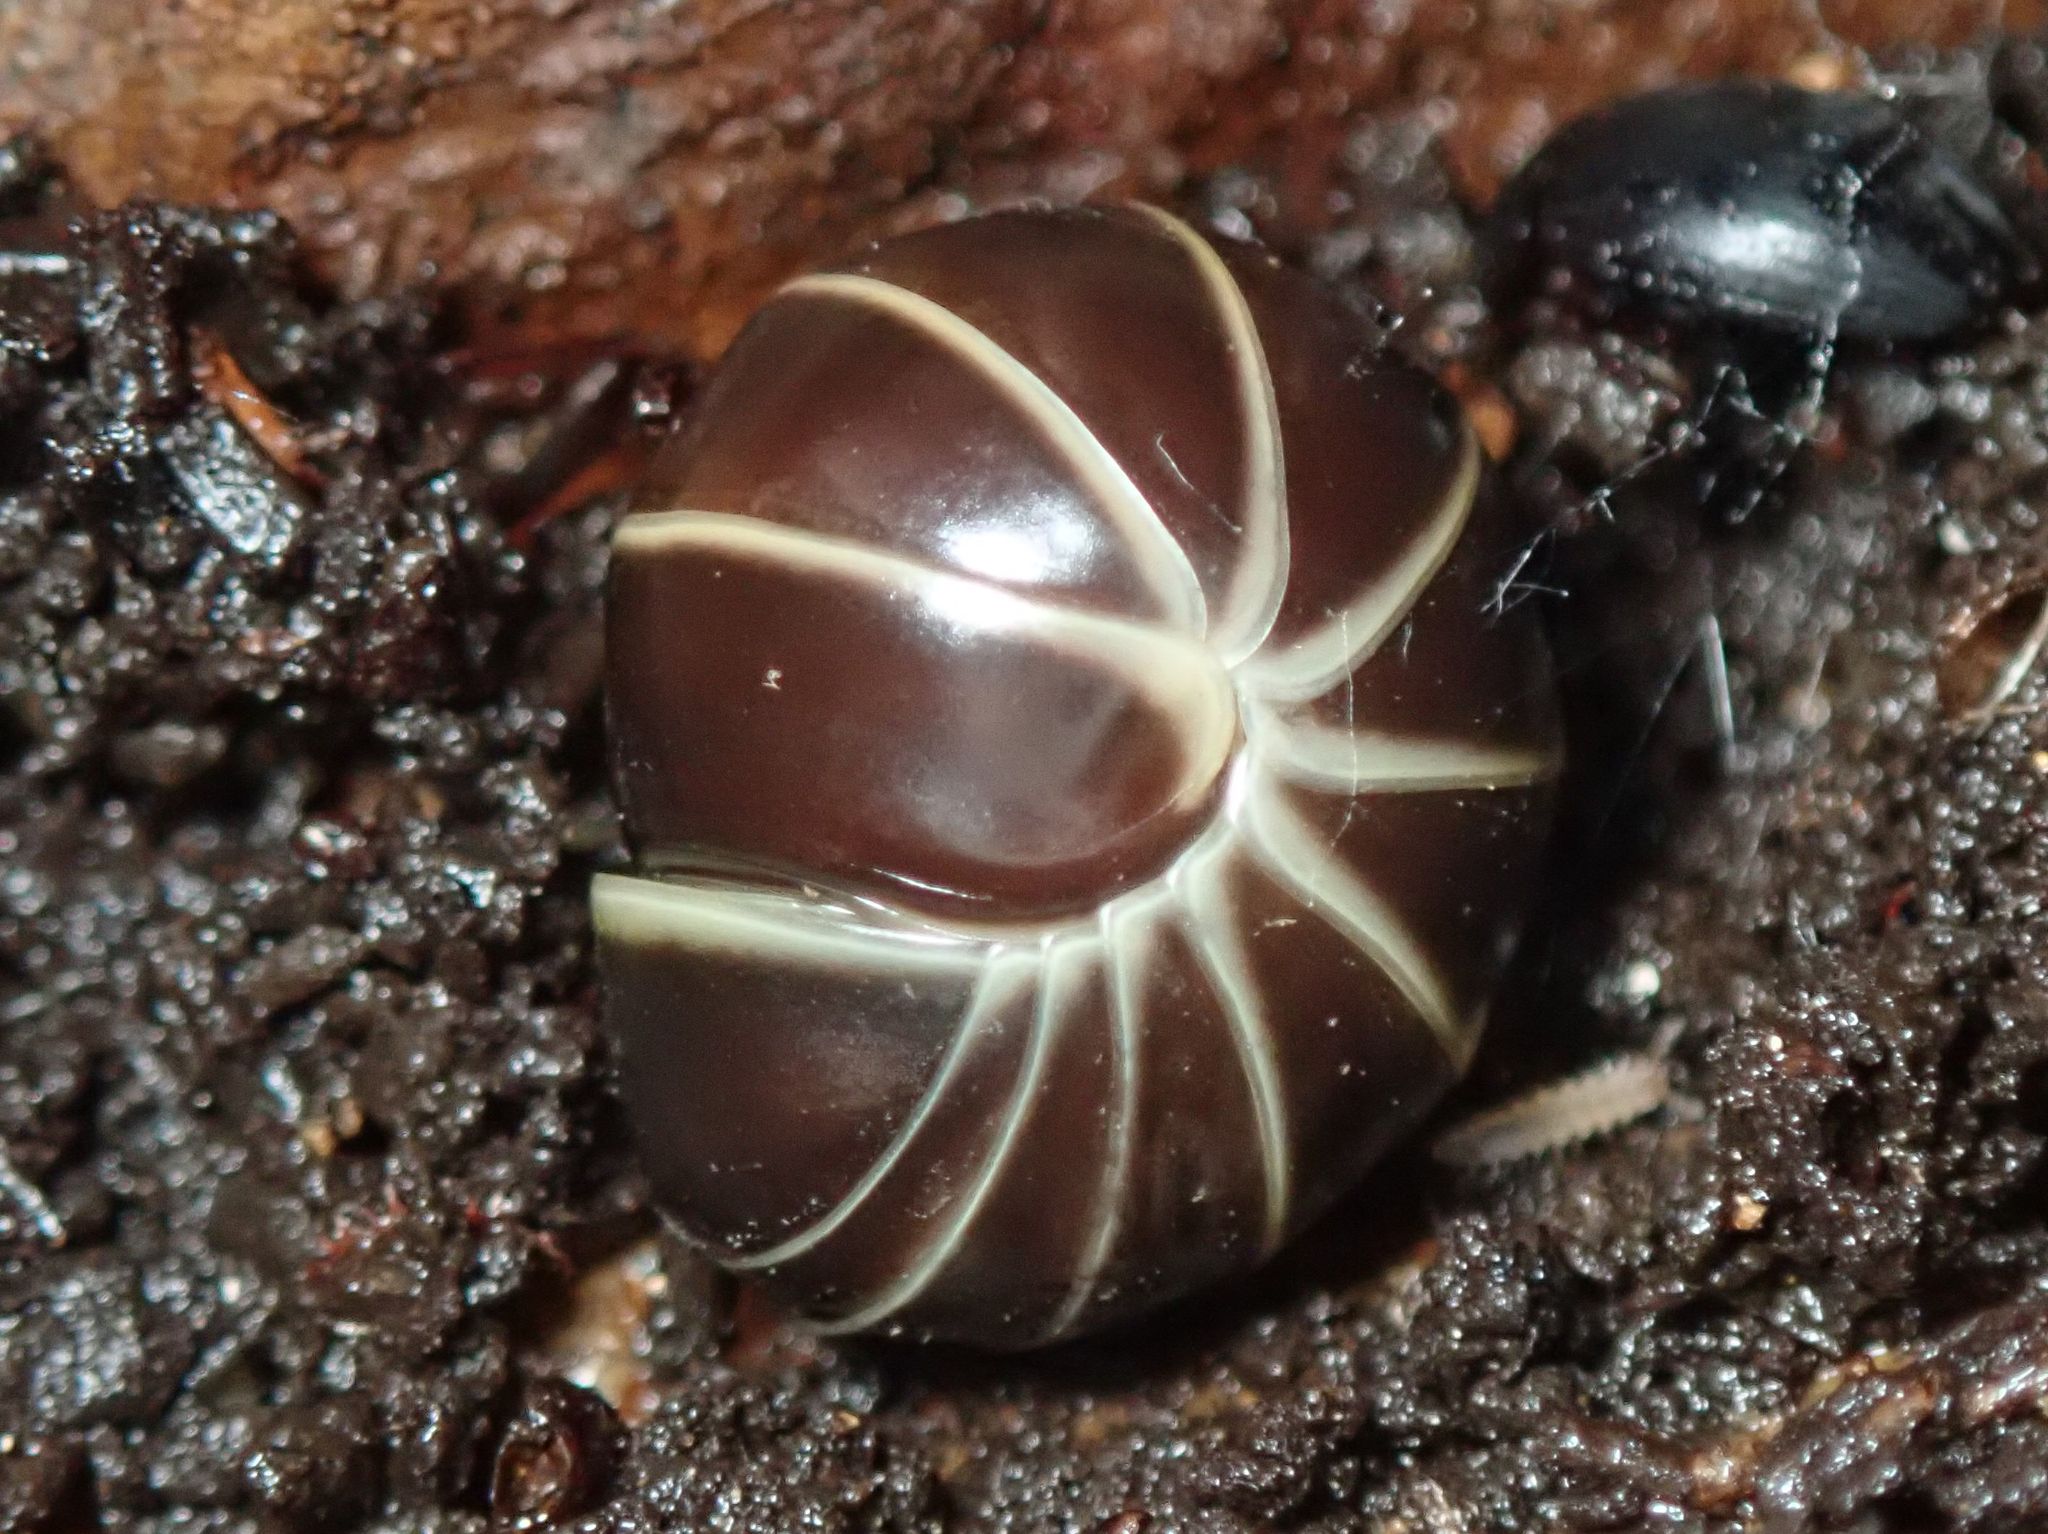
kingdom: Animalia
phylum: Arthropoda
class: Diplopoda
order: Glomerida
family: Glomeridae
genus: Glomeris
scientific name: Glomeris marginata
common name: Bordered pill millipede
